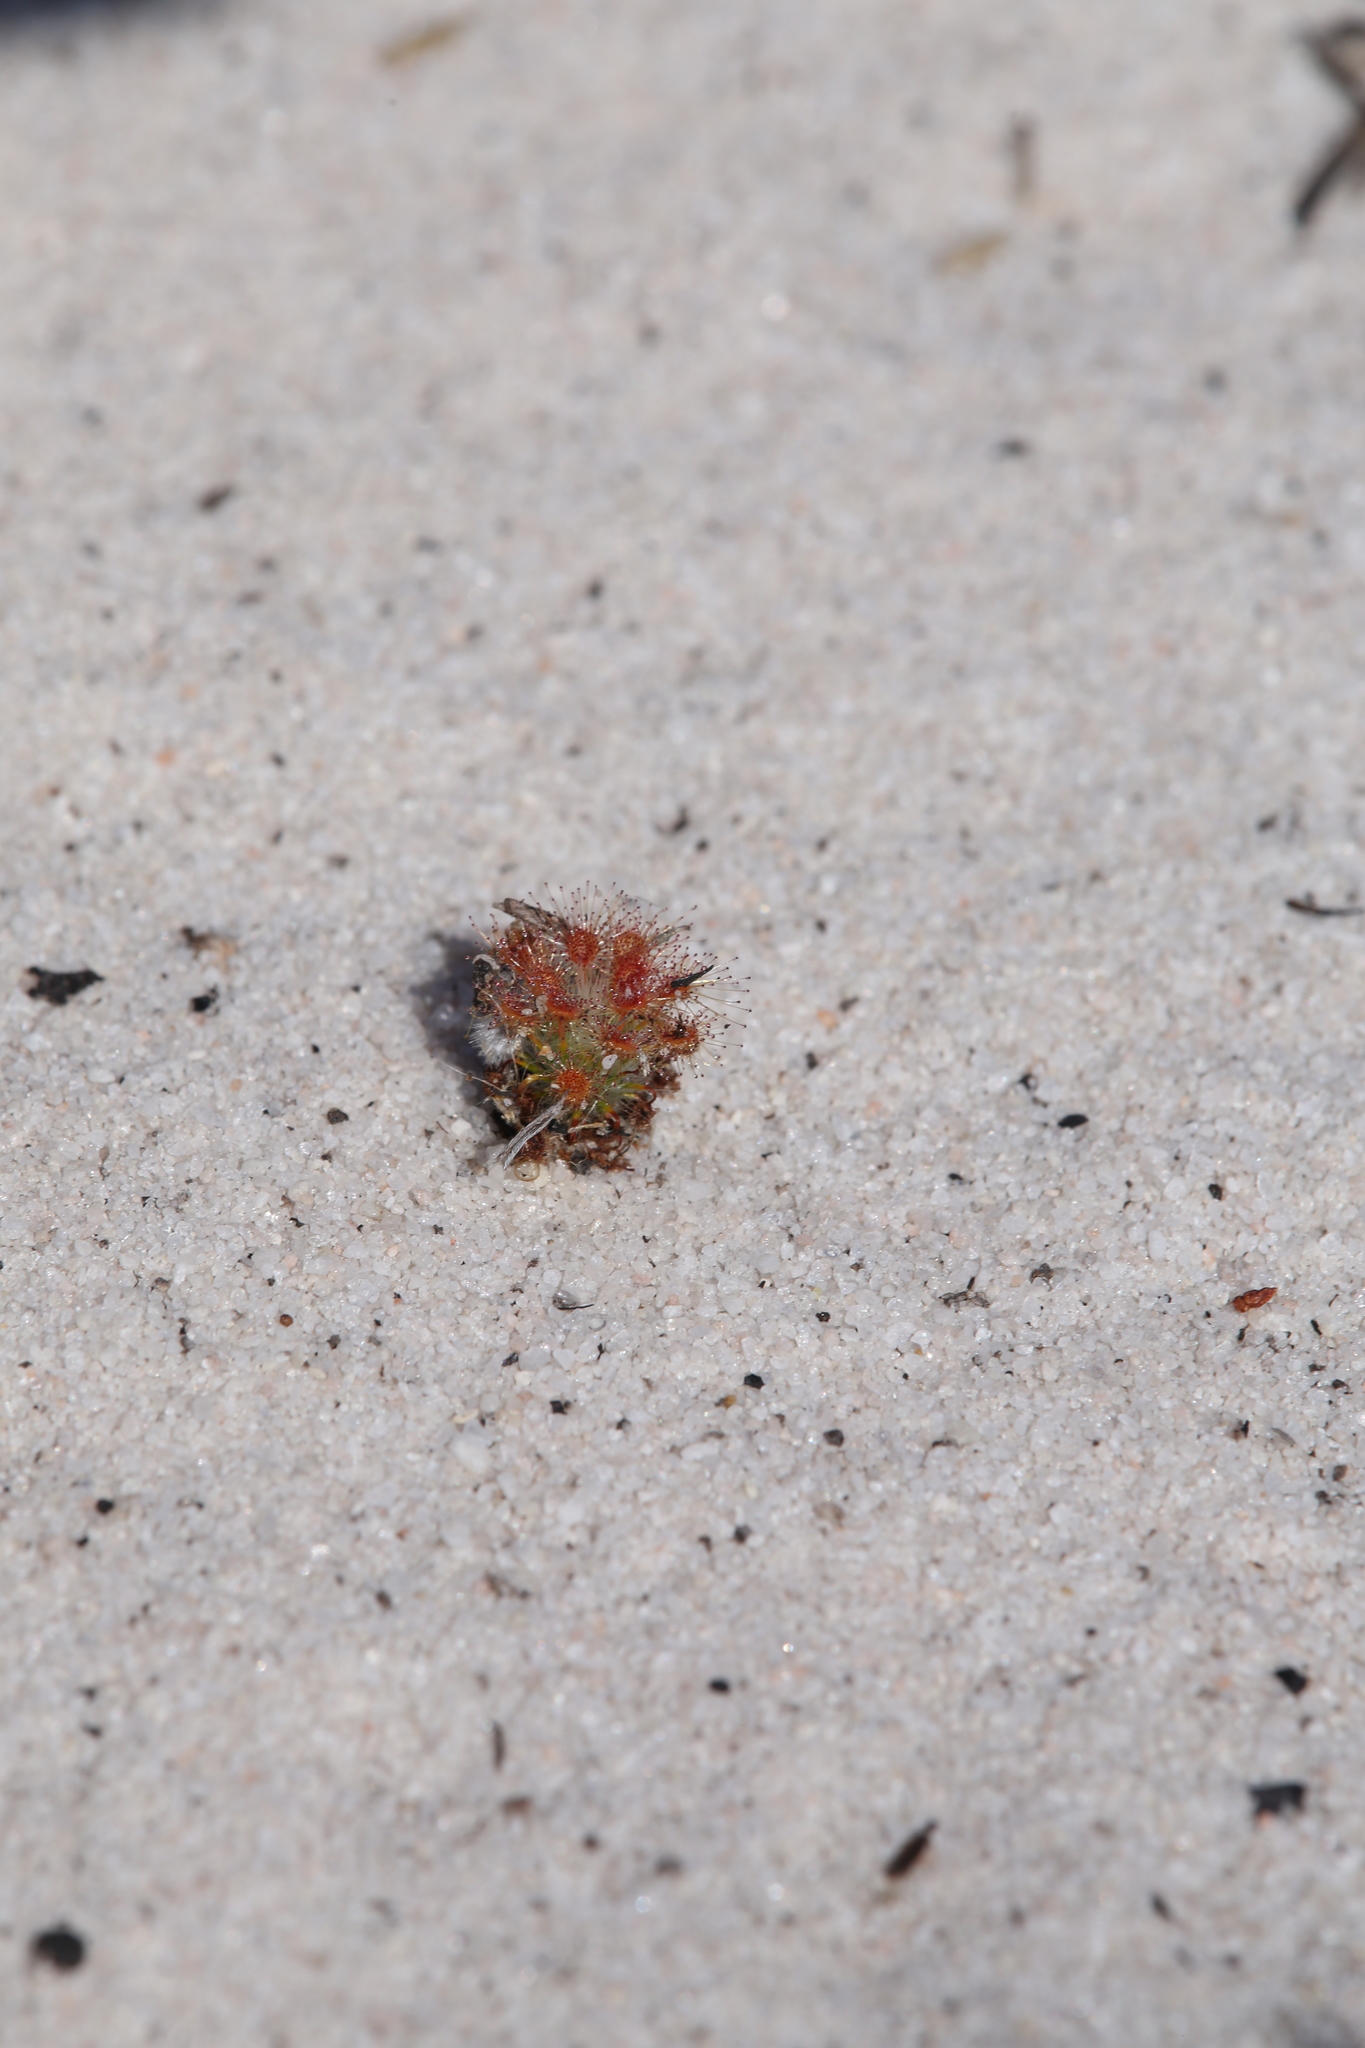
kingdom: Plantae
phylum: Tracheophyta
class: Magnoliopsida
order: Caryophyllales
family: Droseraceae
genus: Drosera
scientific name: Drosera paleacea
